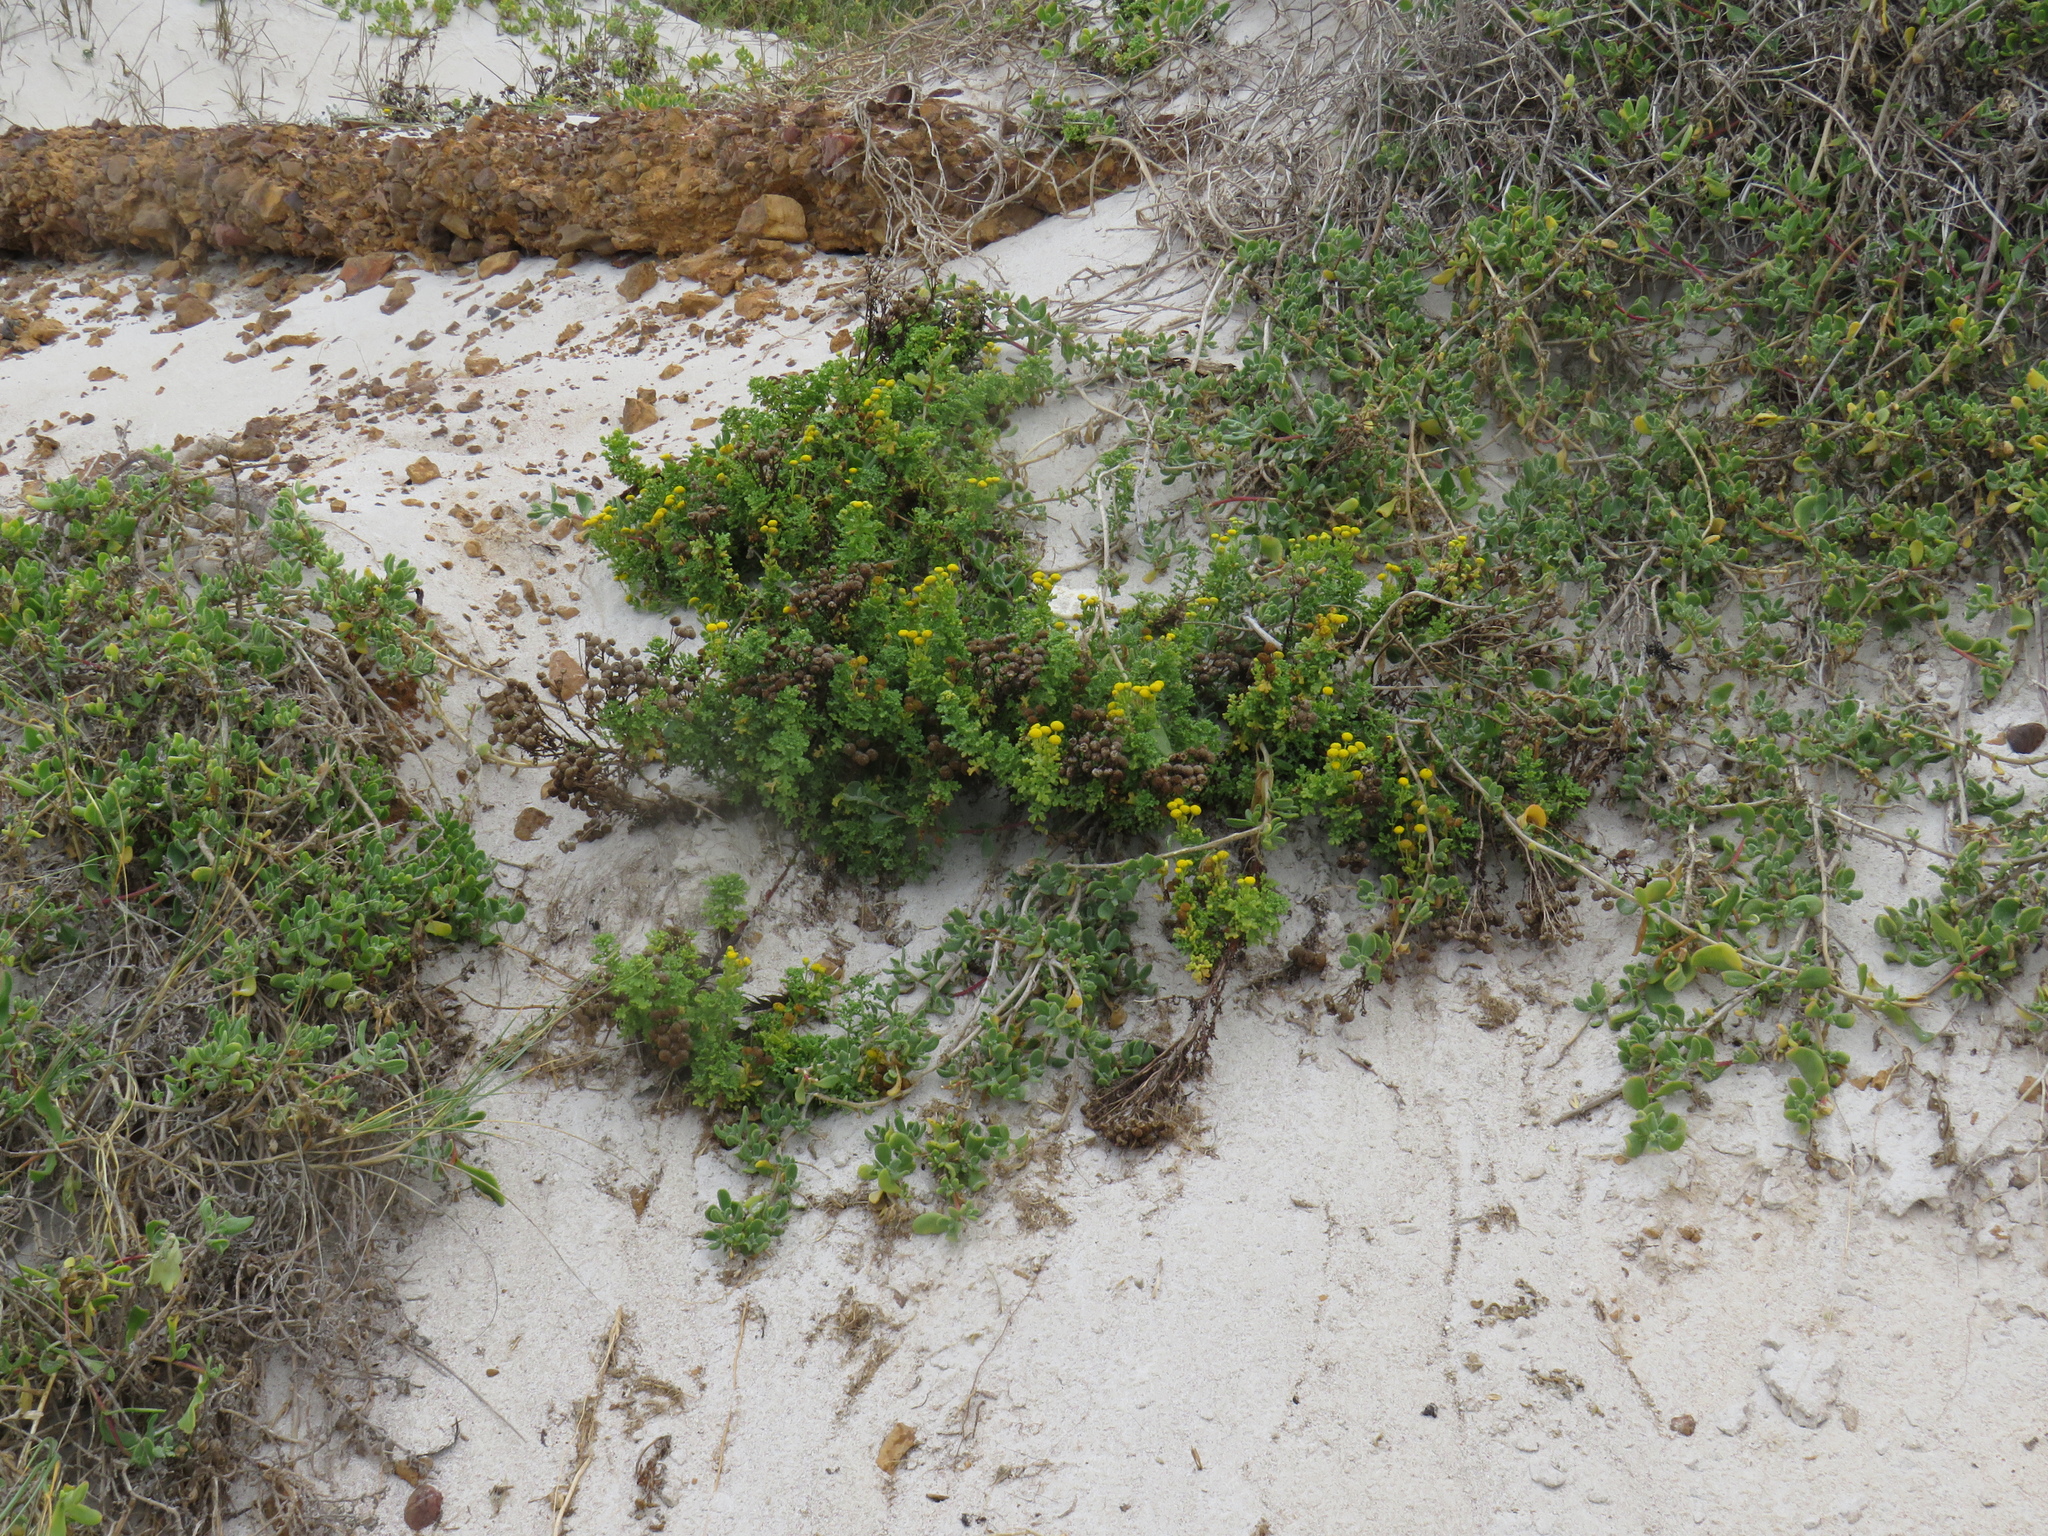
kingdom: Plantae
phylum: Tracheophyta
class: Magnoliopsida
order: Asterales
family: Asteraceae
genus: Oncosiphon
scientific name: Oncosiphon sabulosus
